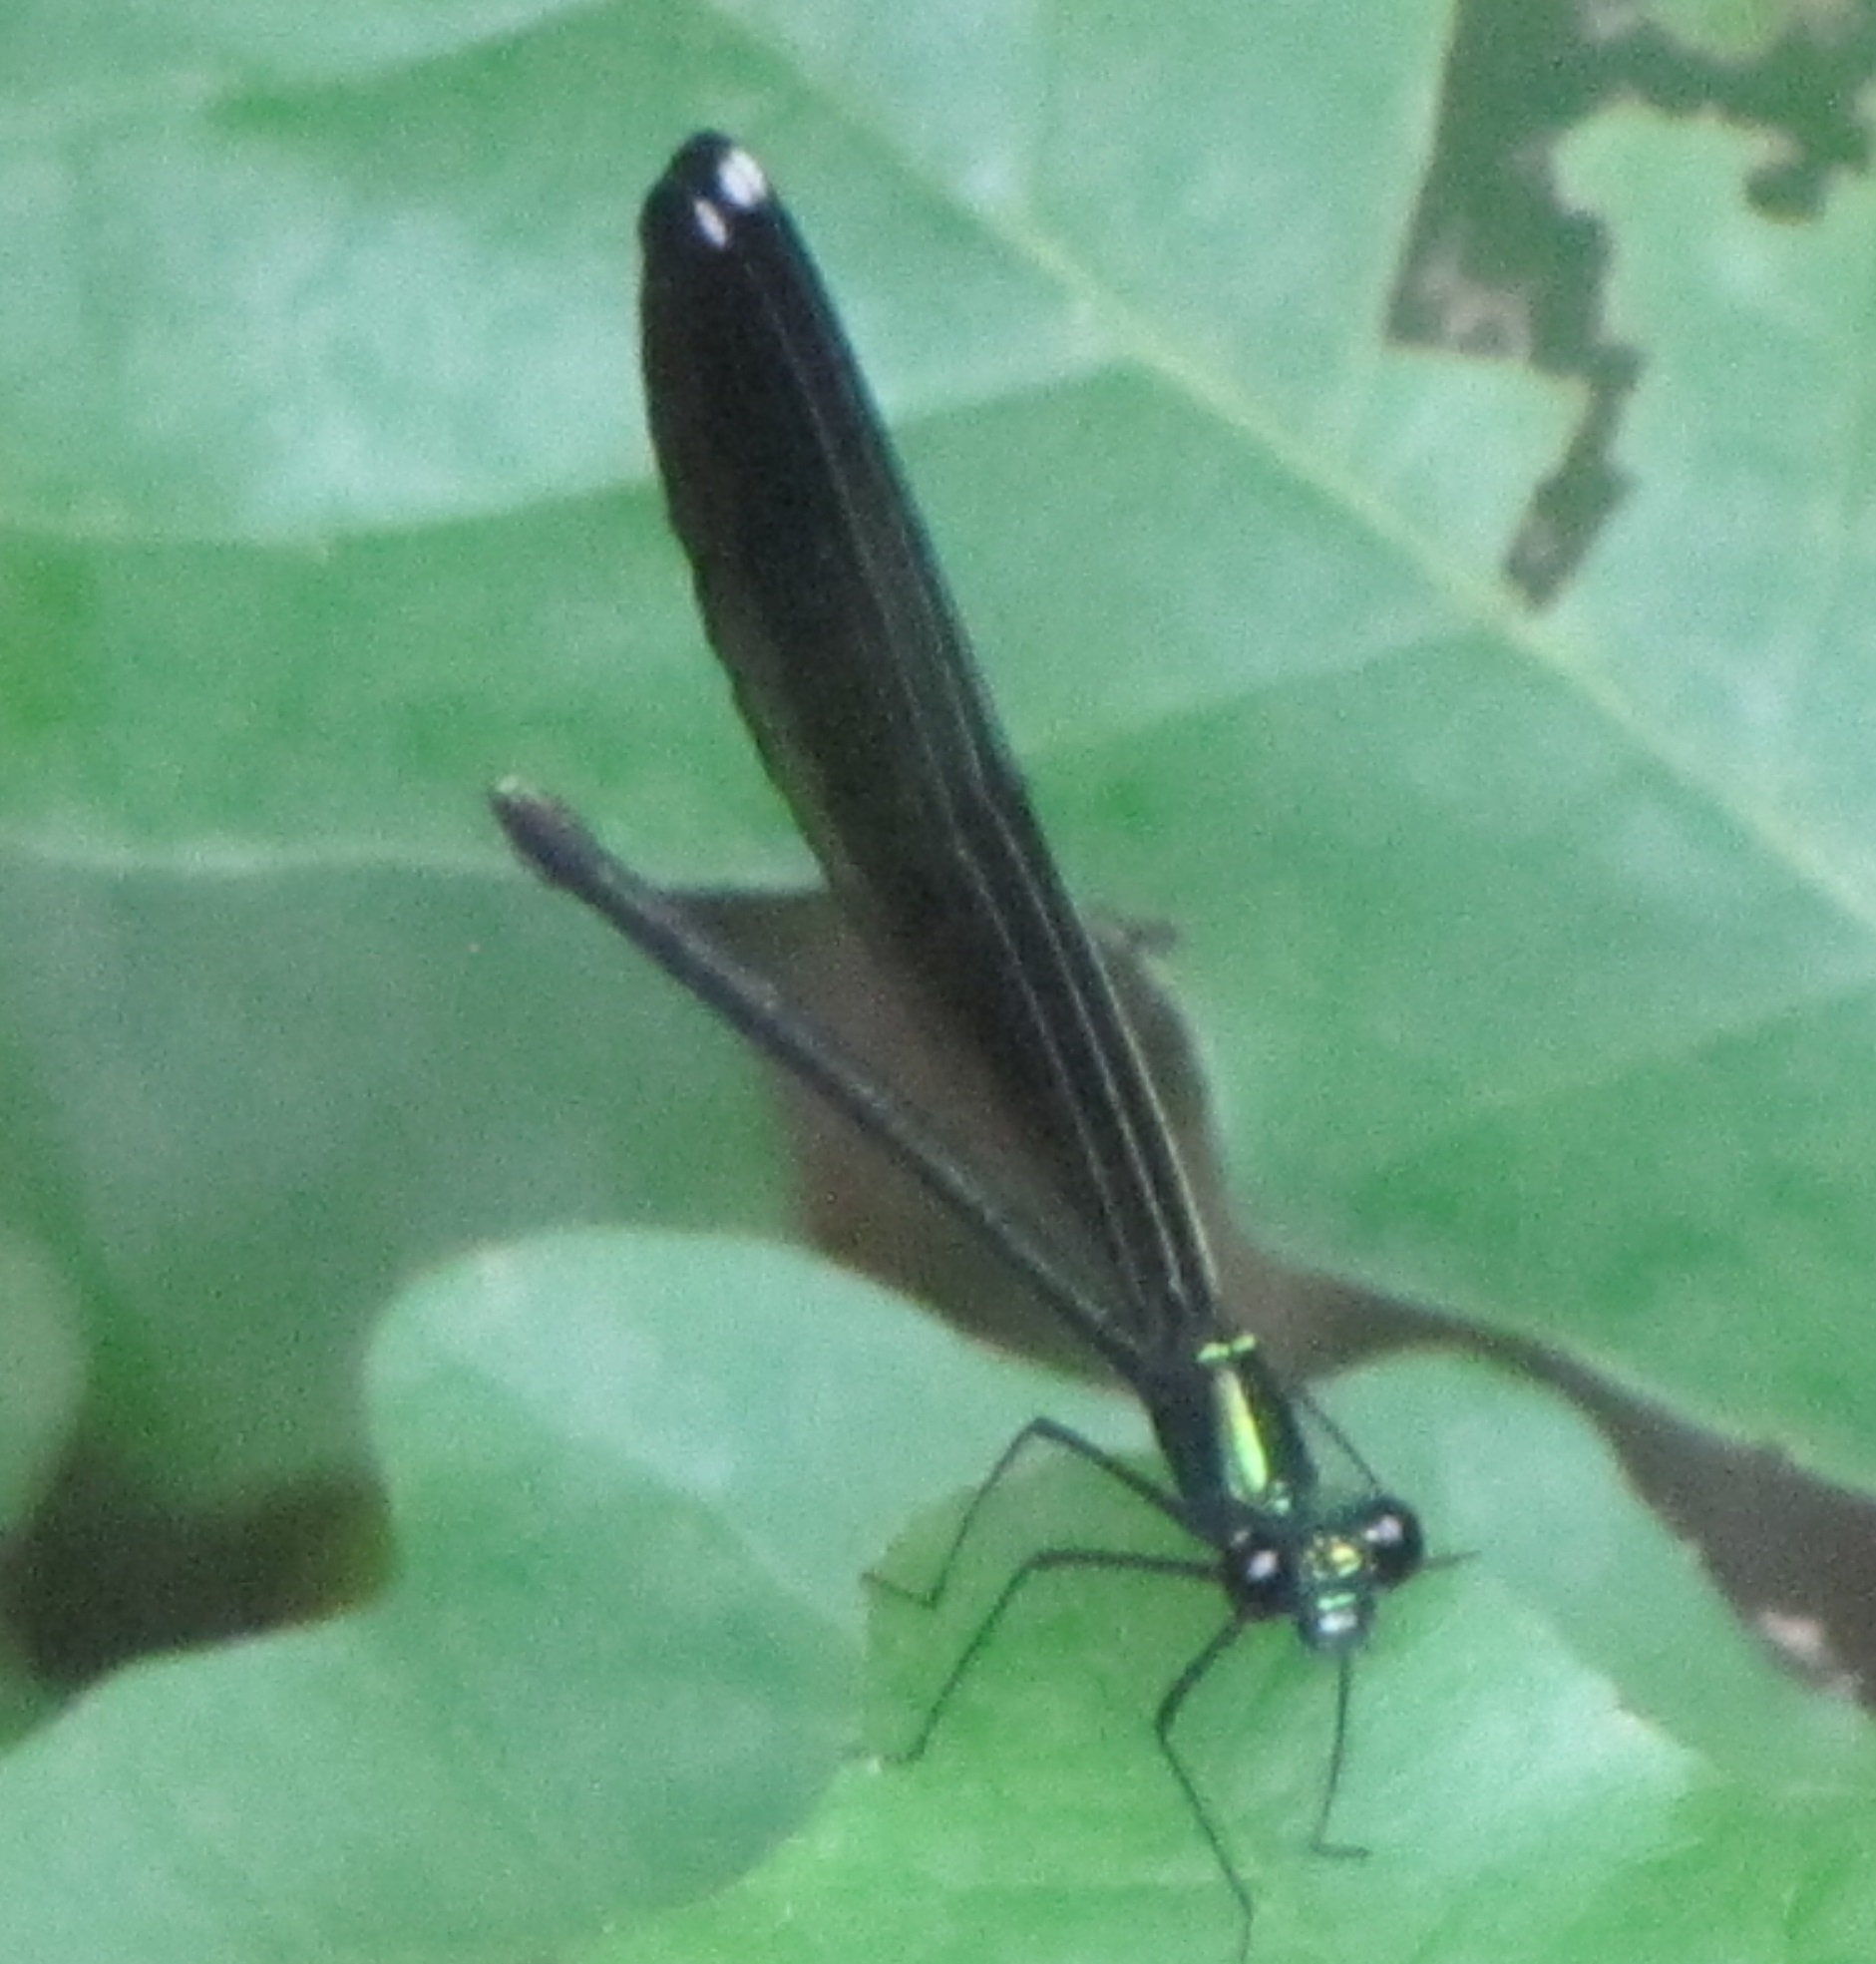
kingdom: Animalia
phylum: Arthropoda
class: Insecta
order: Odonata
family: Calopterygidae
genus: Calopteryx
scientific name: Calopteryx maculata
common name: Ebony jewelwing
